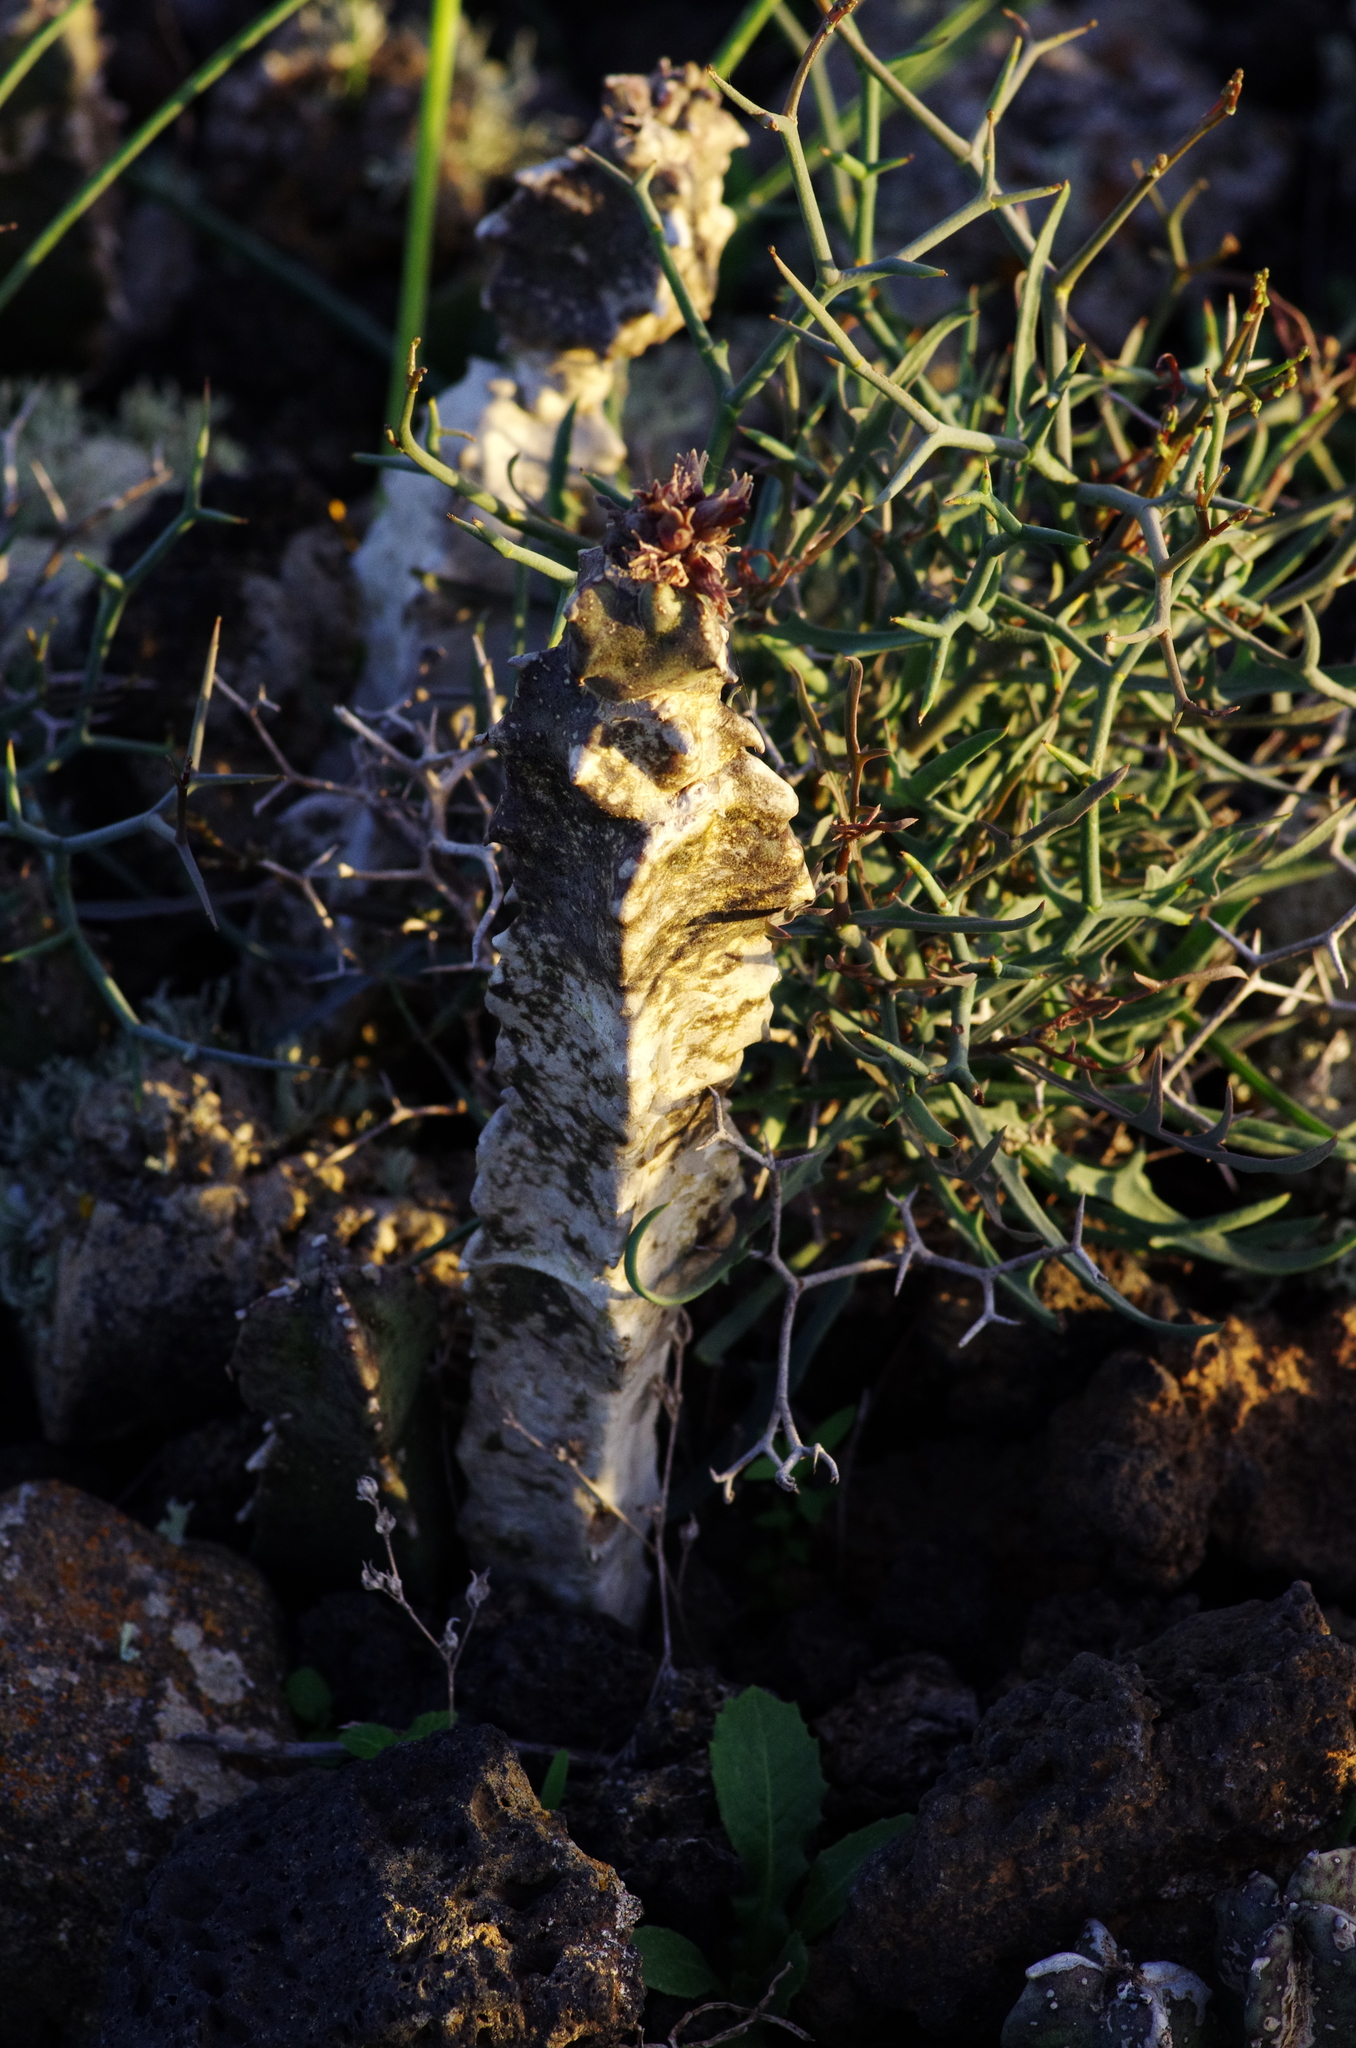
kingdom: Plantae
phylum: Tracheophyta
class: Magnoliopsida
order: Gentianales
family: Apocynaceae
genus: Ceropegia
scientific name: Ceropegia burchardii
